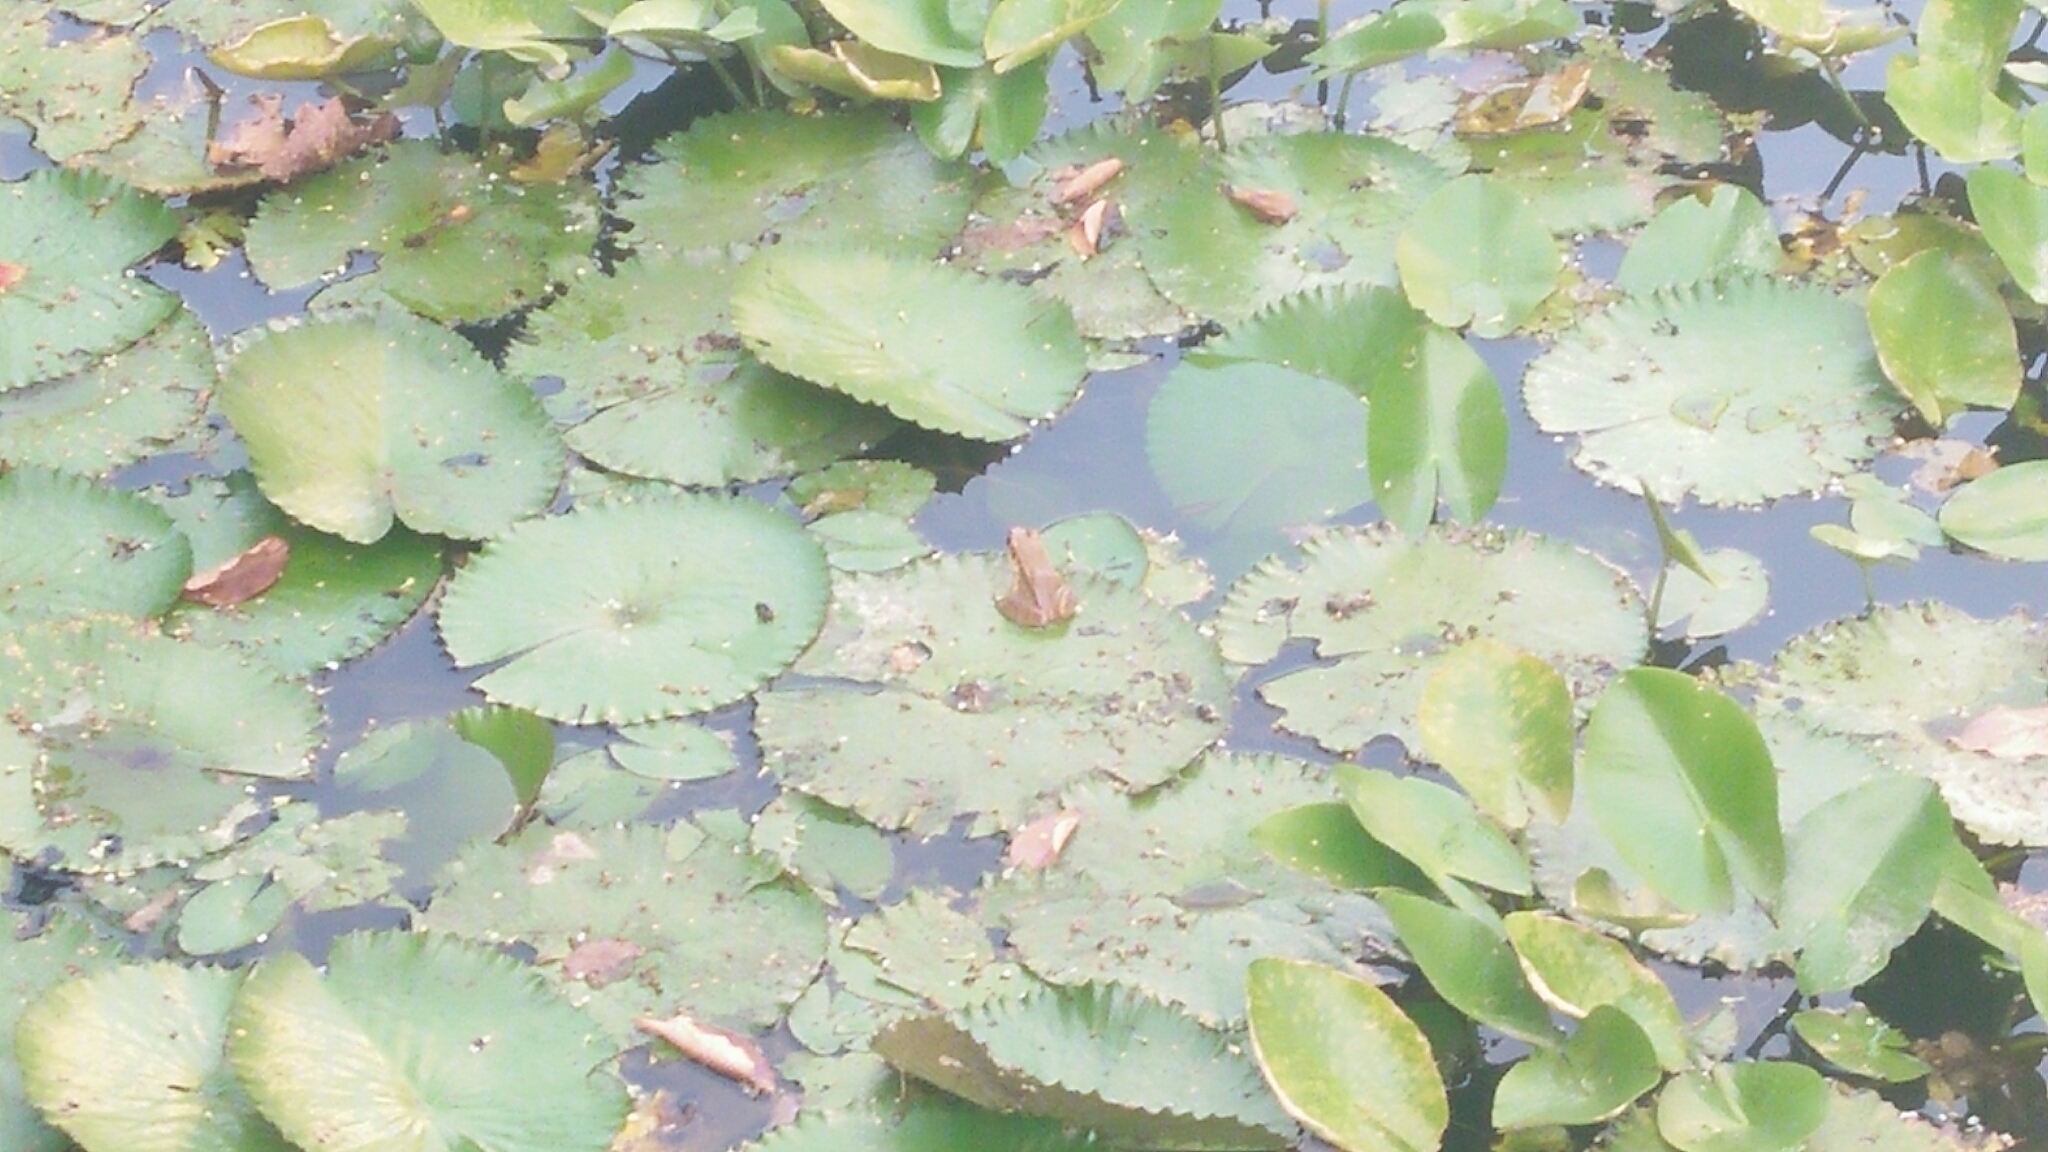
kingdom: Animalia
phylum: Chordata
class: Amphibia
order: Anura
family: Ranidae
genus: Hylarana
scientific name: Hylarana latouchii
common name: Broad-folded frog
